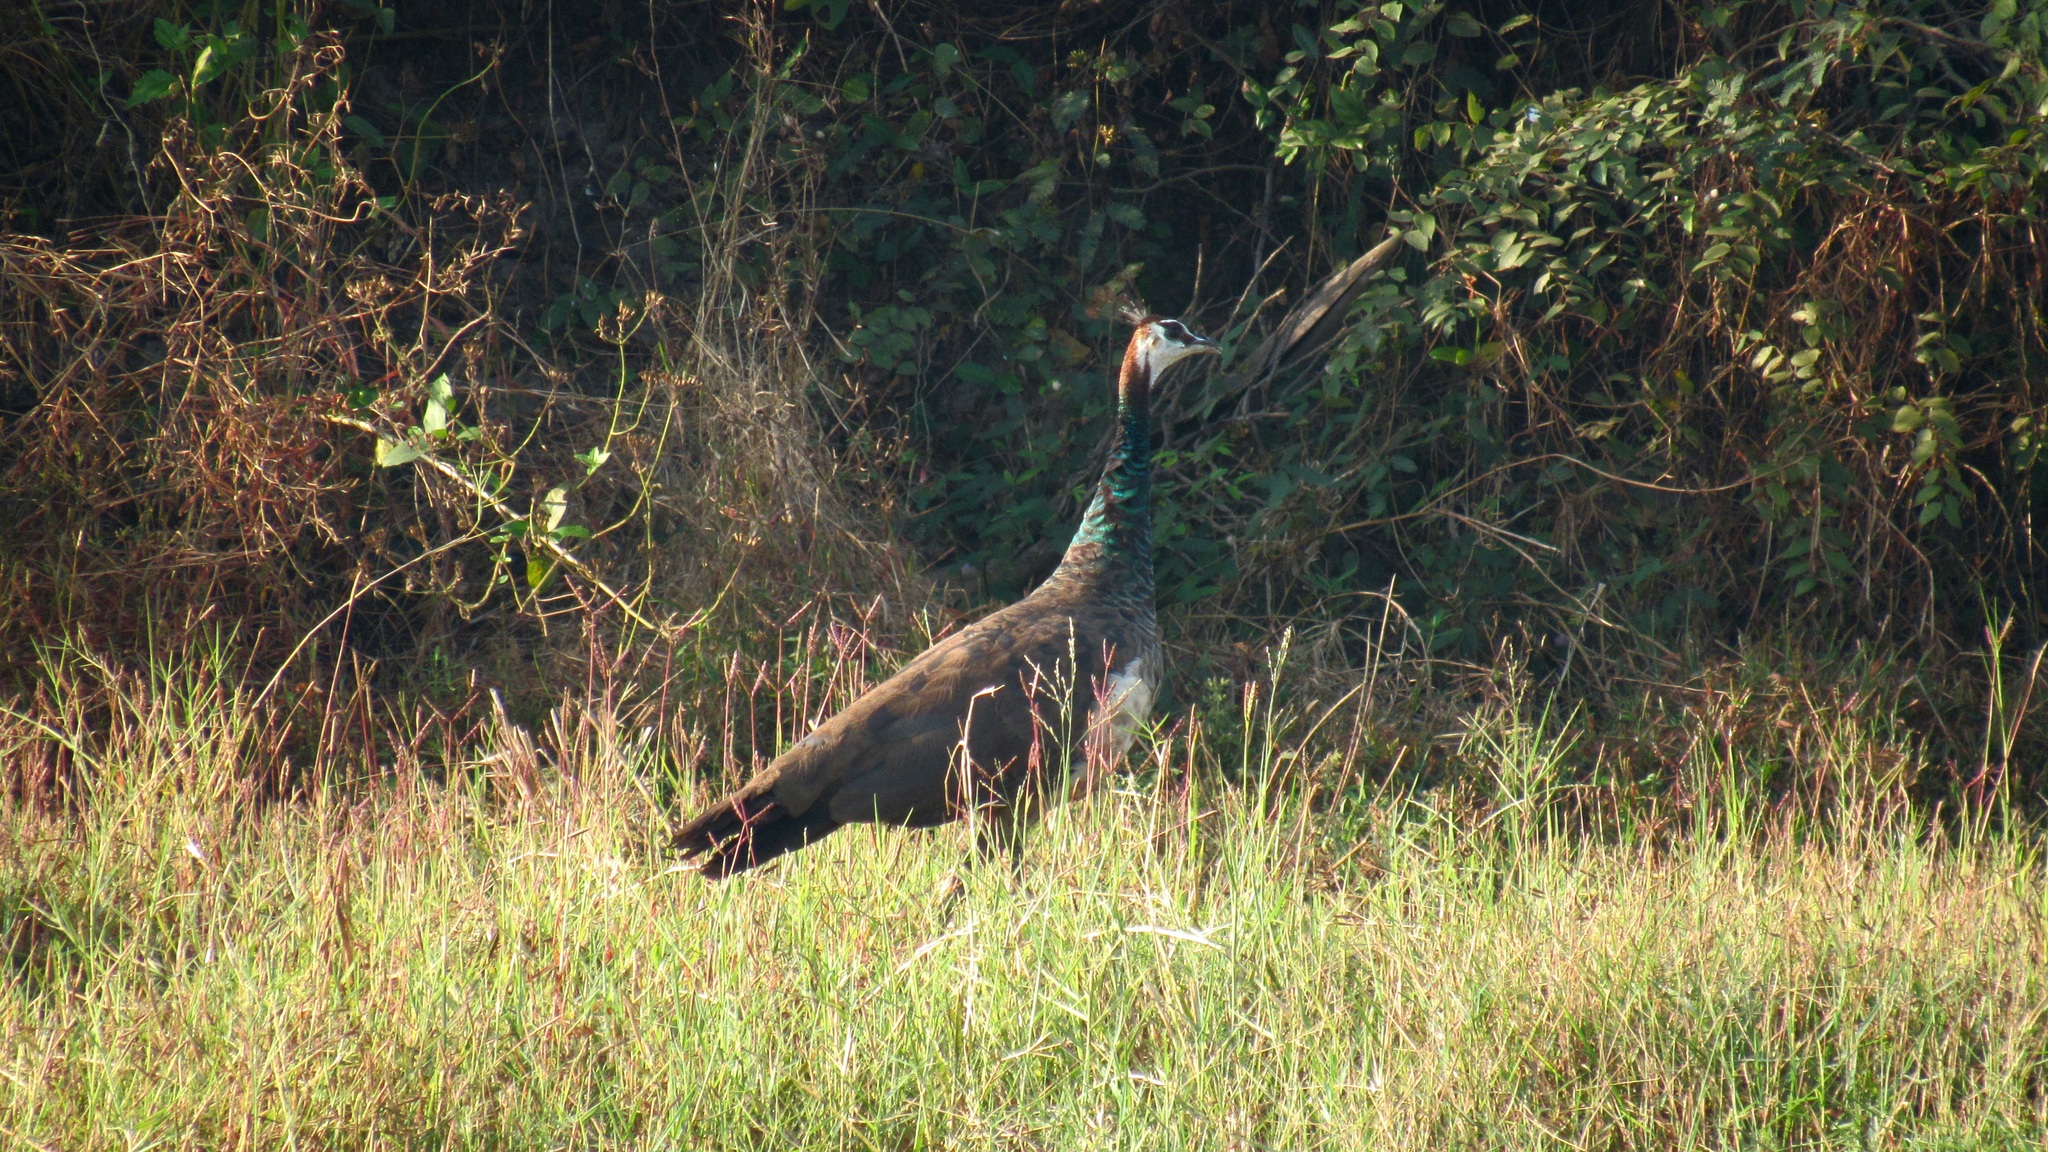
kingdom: Animalia
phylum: Chordata
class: Aves
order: Galliformes
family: Phasianidae
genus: Pavo
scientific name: Pavo cristatus
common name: Indian peafowl
